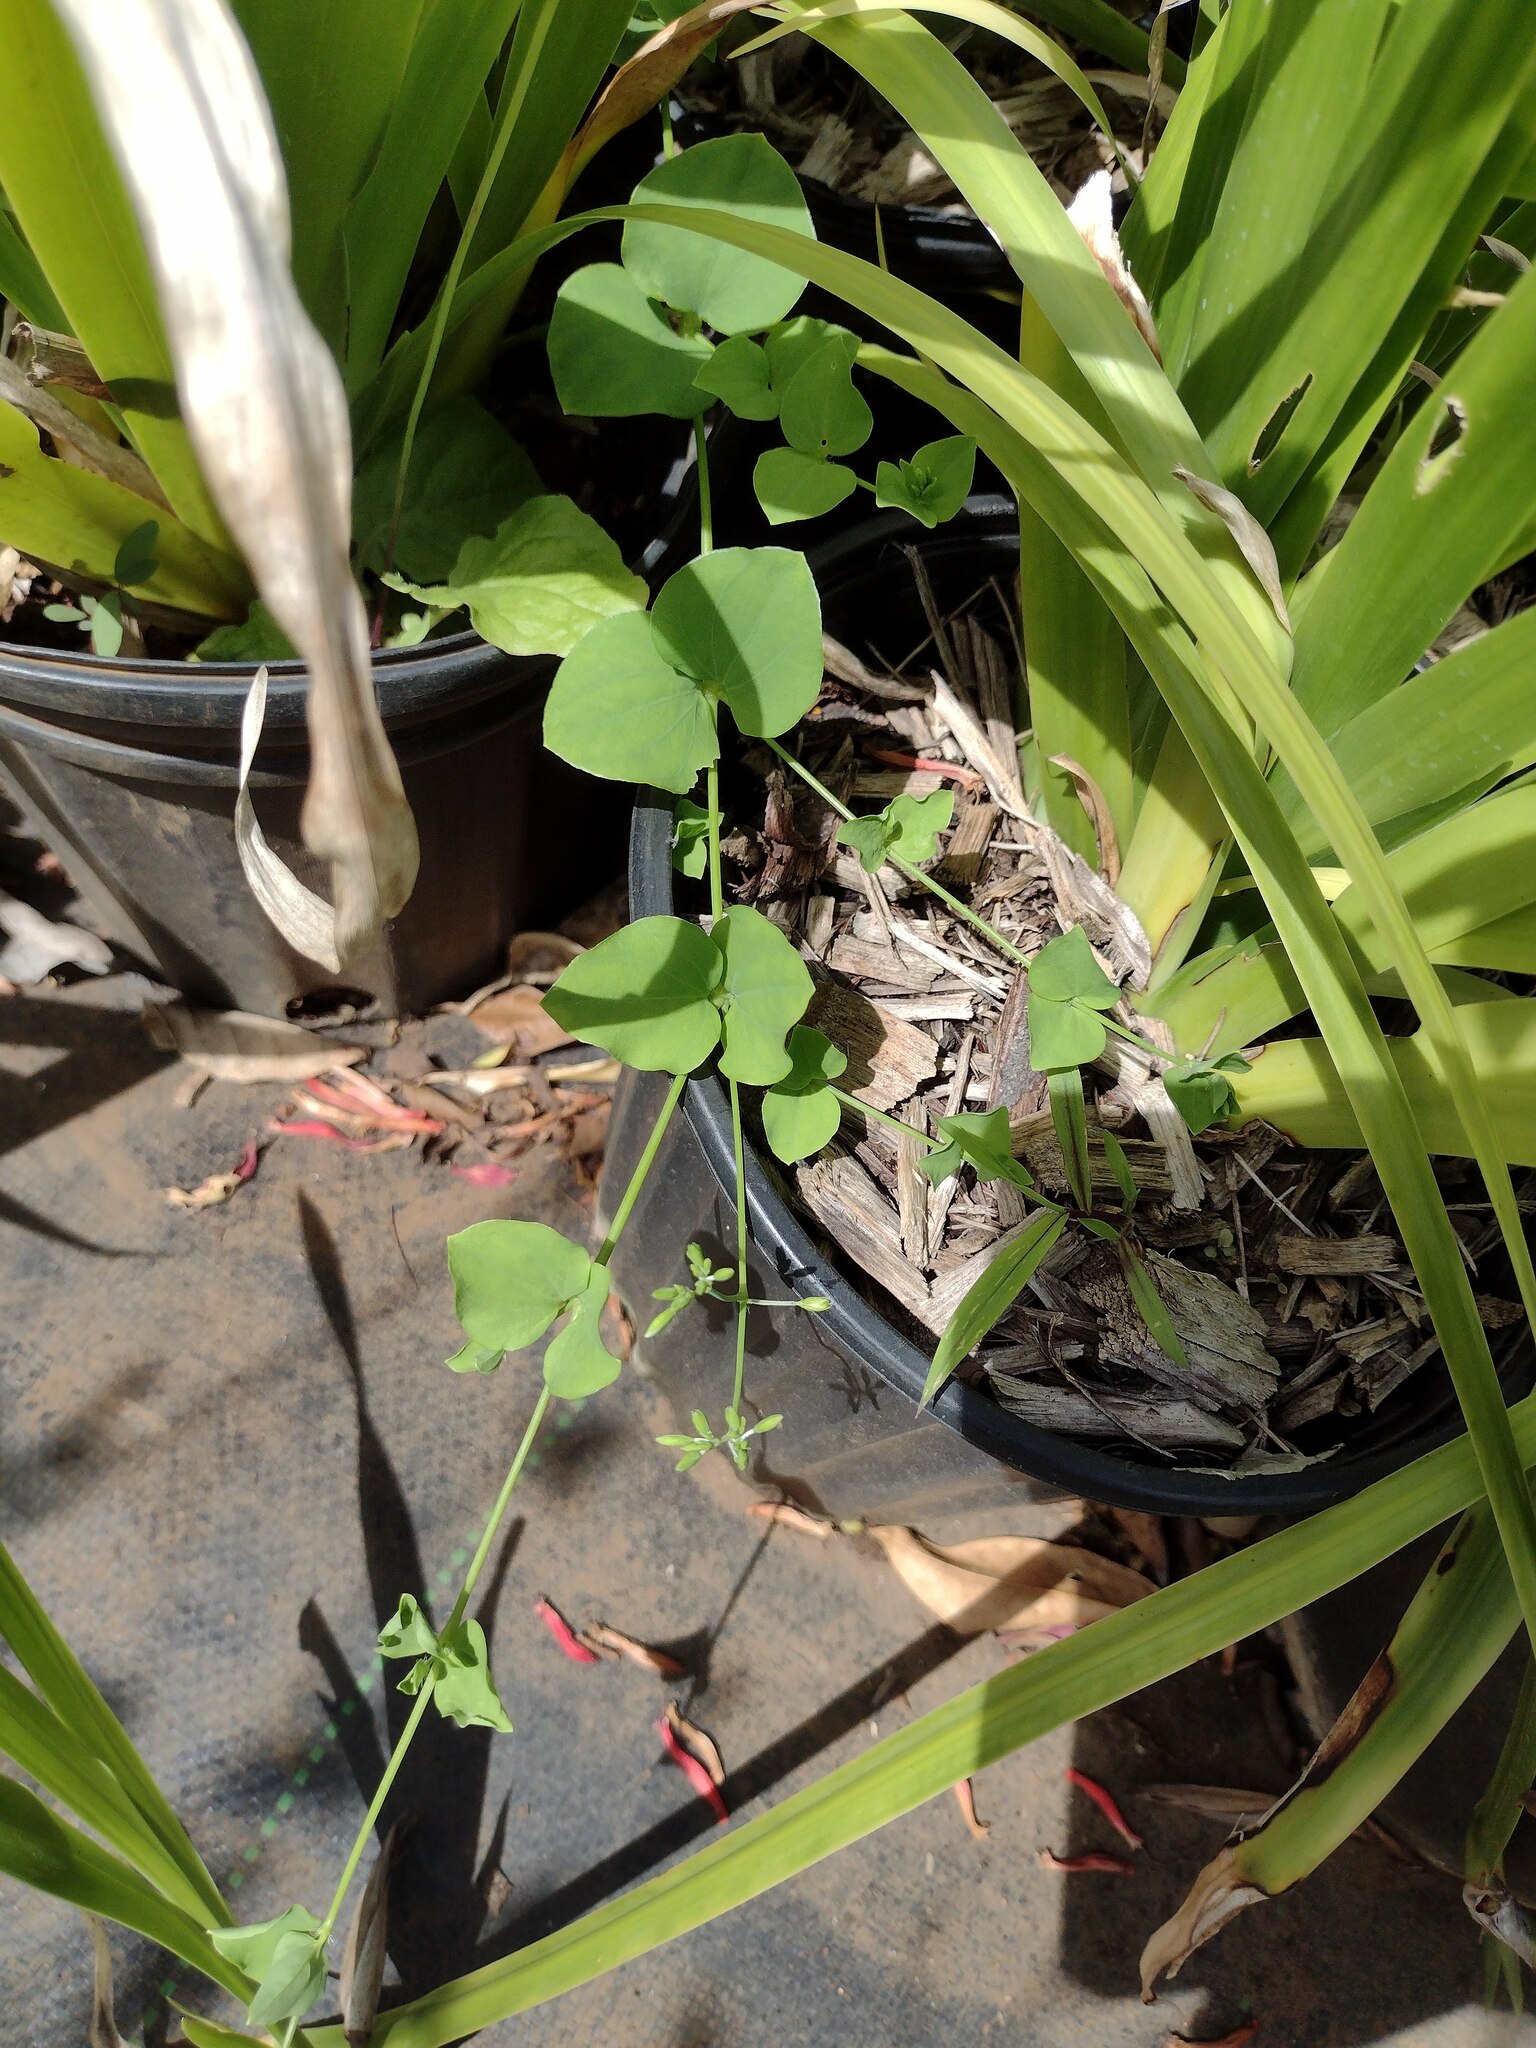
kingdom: Plantae
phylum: Tracheophyta
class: Magnoliopsida
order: Caryophyllales
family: Caryophyllaceae
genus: Drymaria
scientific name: Drymaria cordata
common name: Whitesnow
